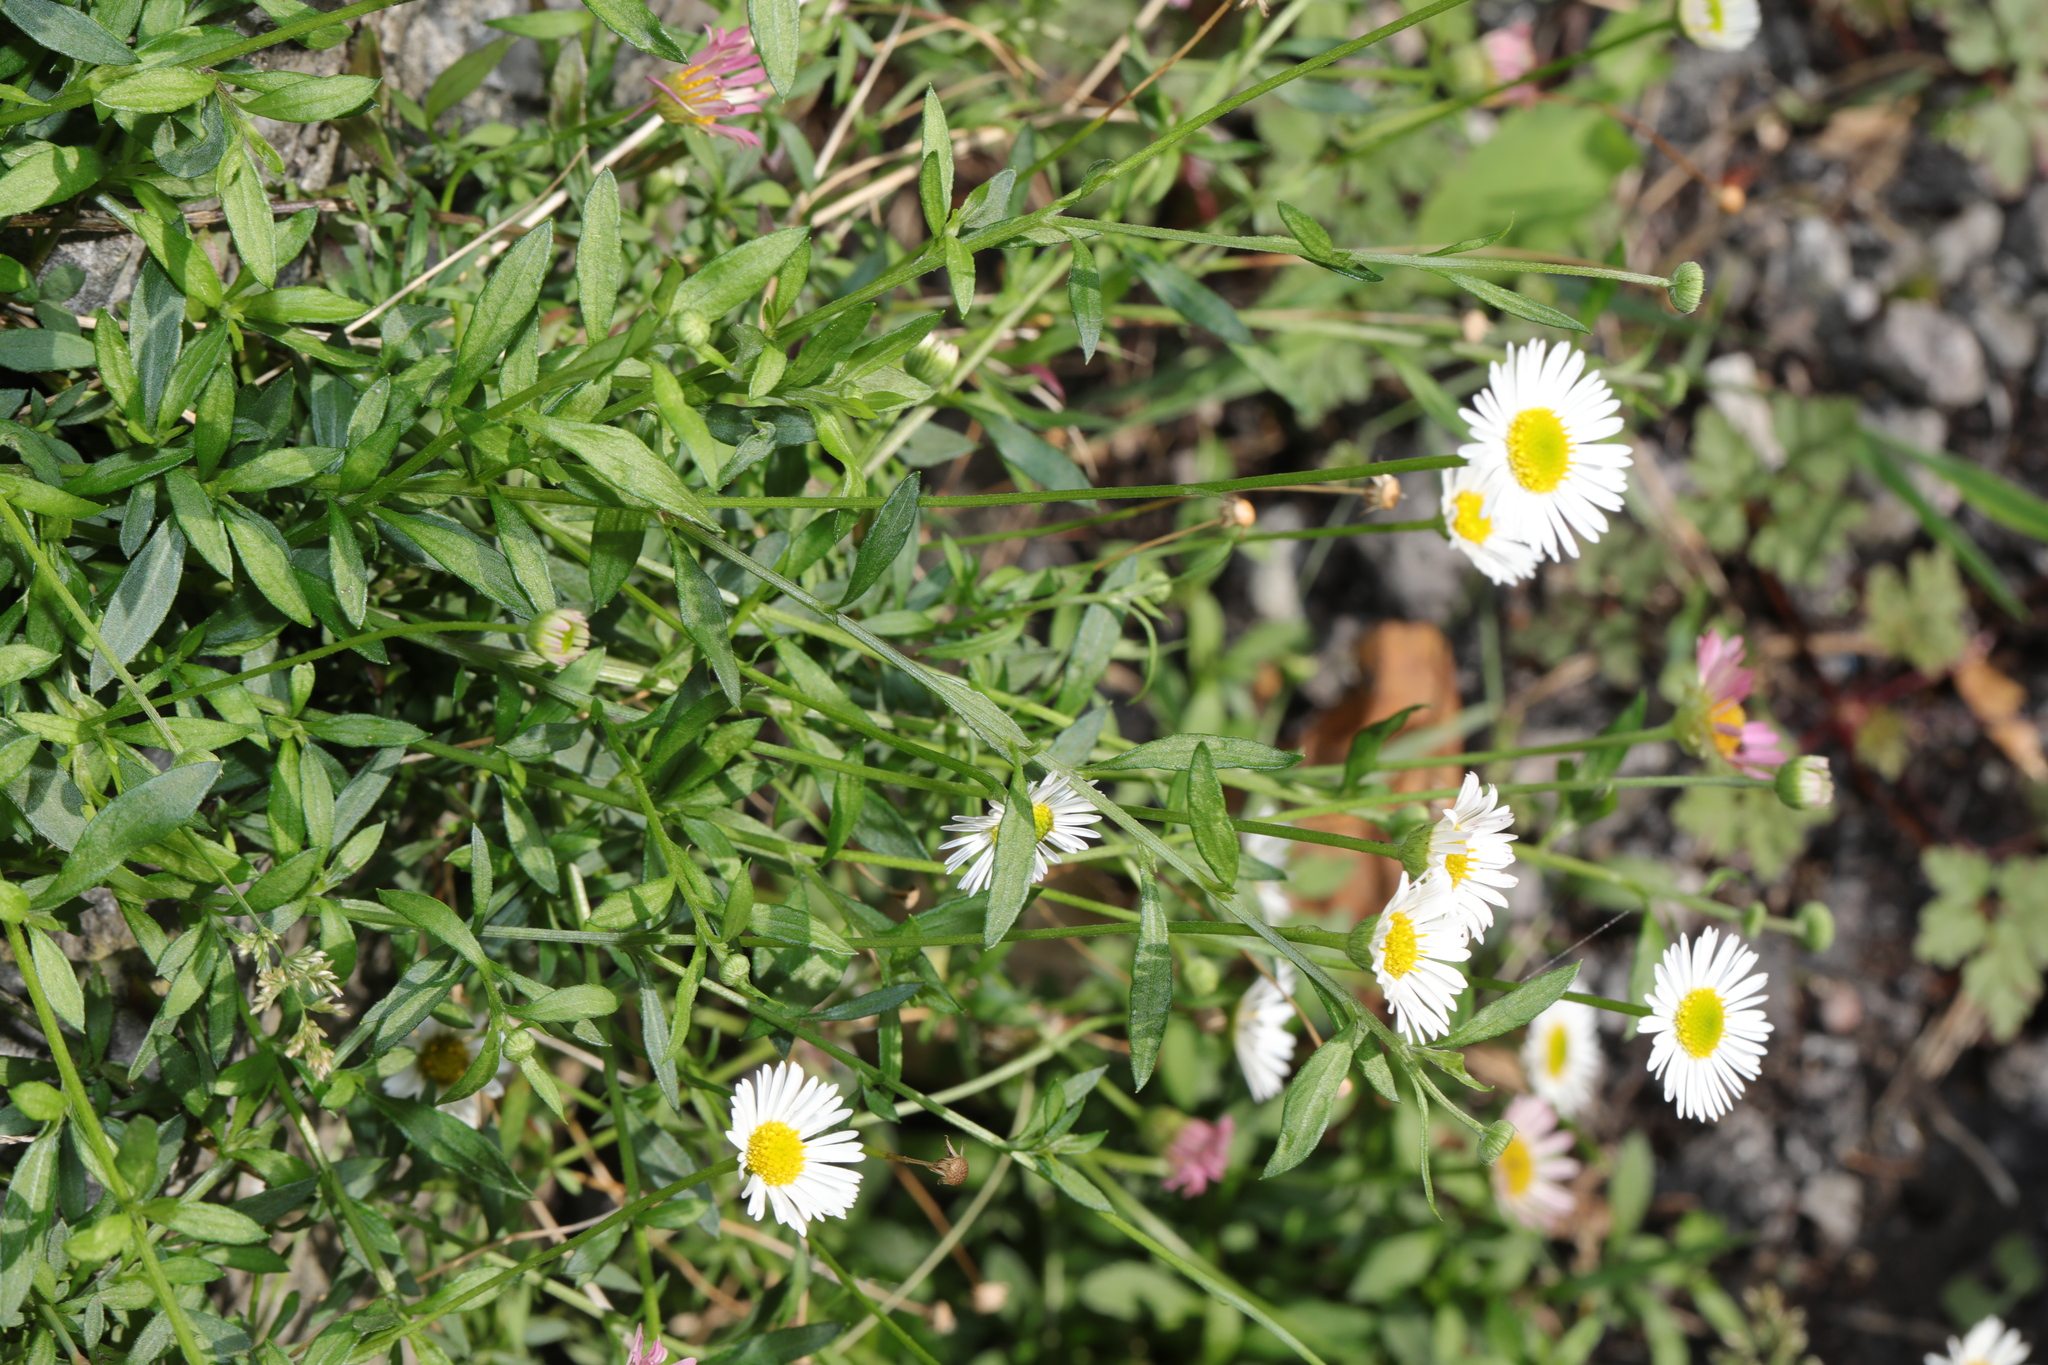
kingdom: Plantae
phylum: Tracheophyta
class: Magnoliopsida
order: Asterales
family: Asteraceae
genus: Erigeron
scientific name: Erigeron karvinskianus
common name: Mexican fleabane
